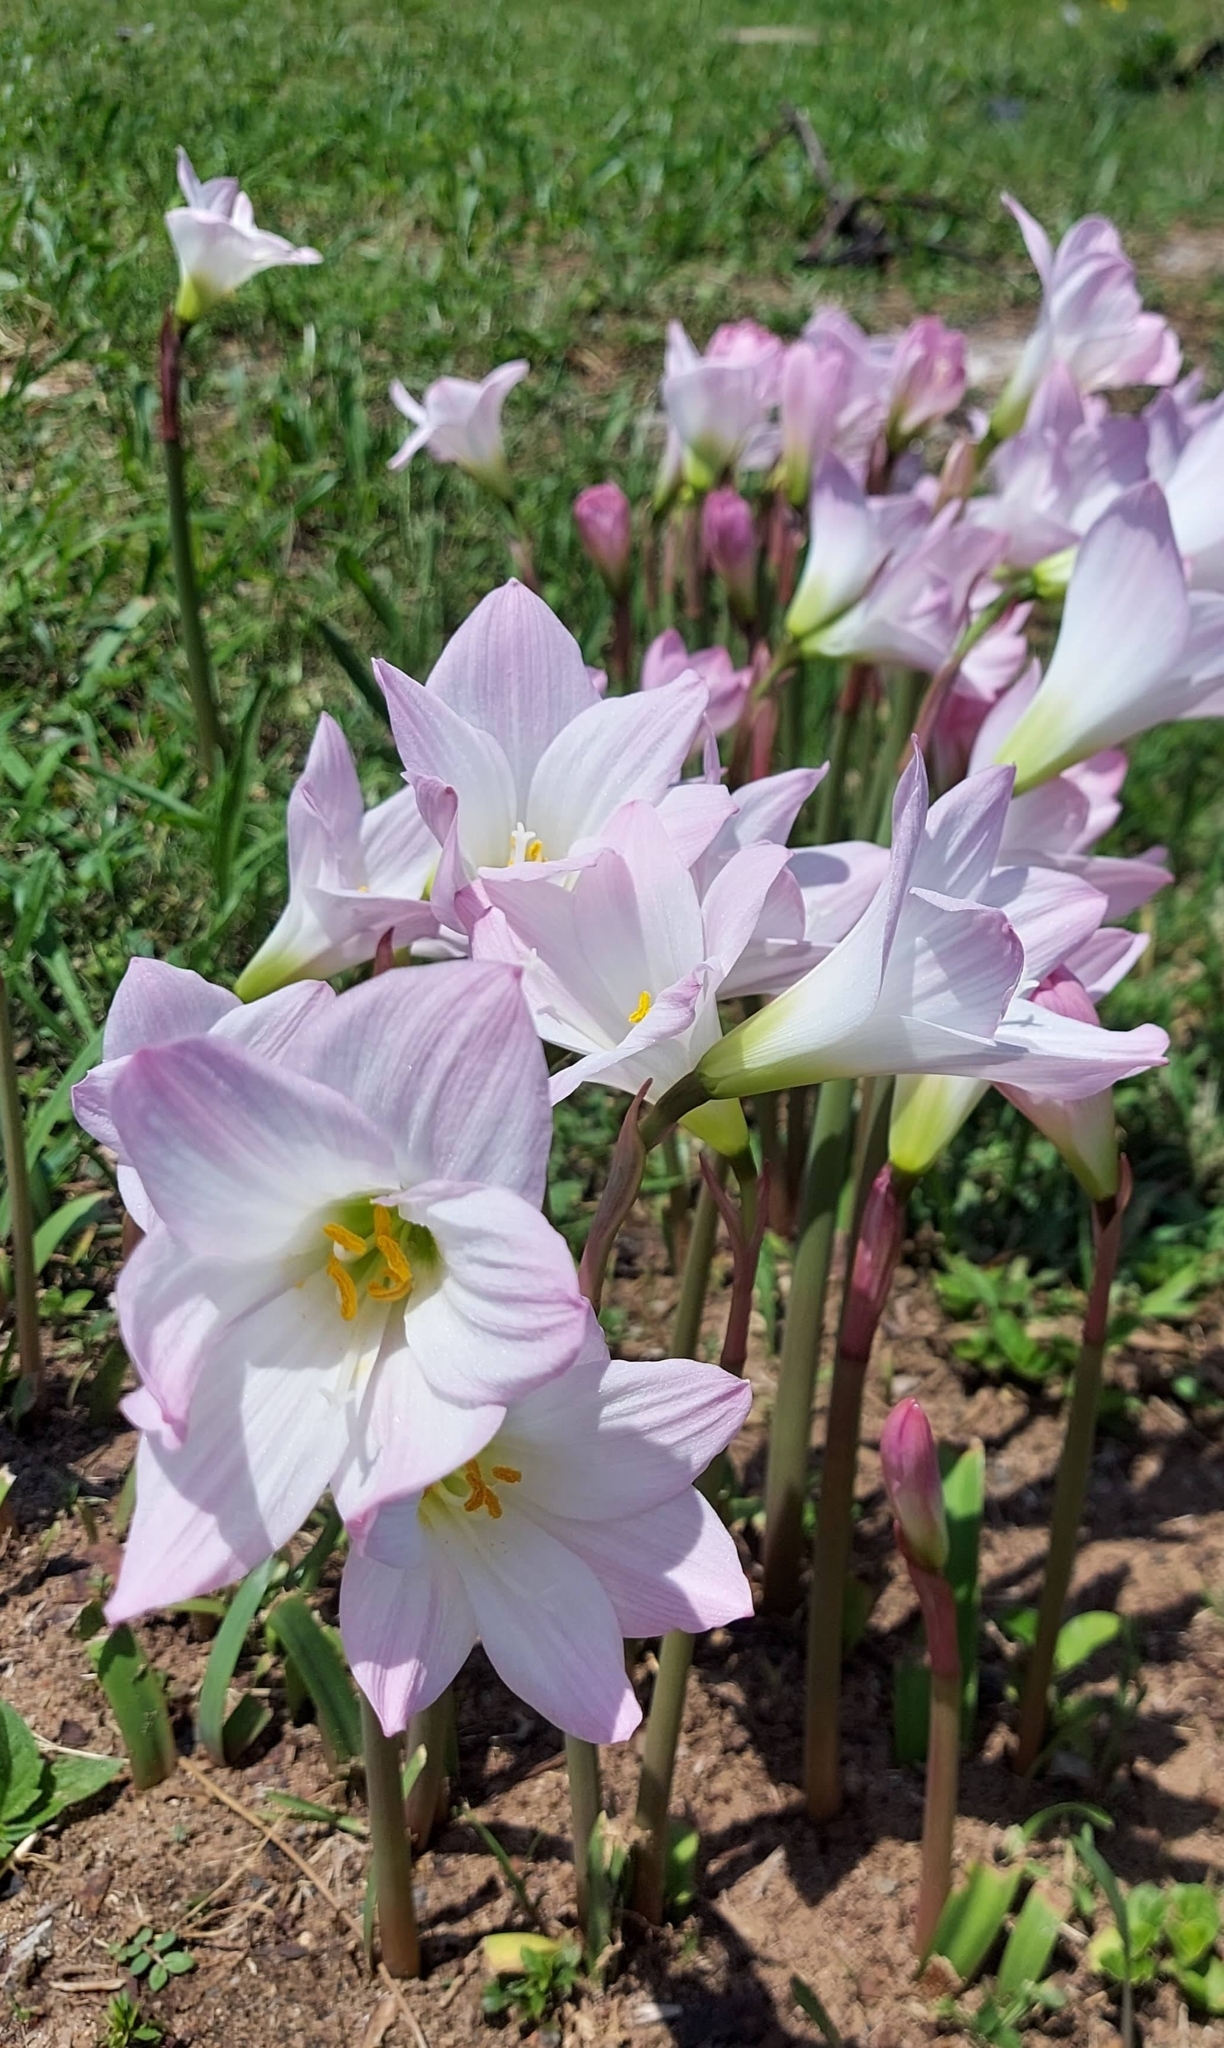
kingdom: Plantae
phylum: Tracheophyta
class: Liliopsida
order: Asparagales
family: Amaryllidaceae
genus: Zephyranthes
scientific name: Zephyranthes robusta
